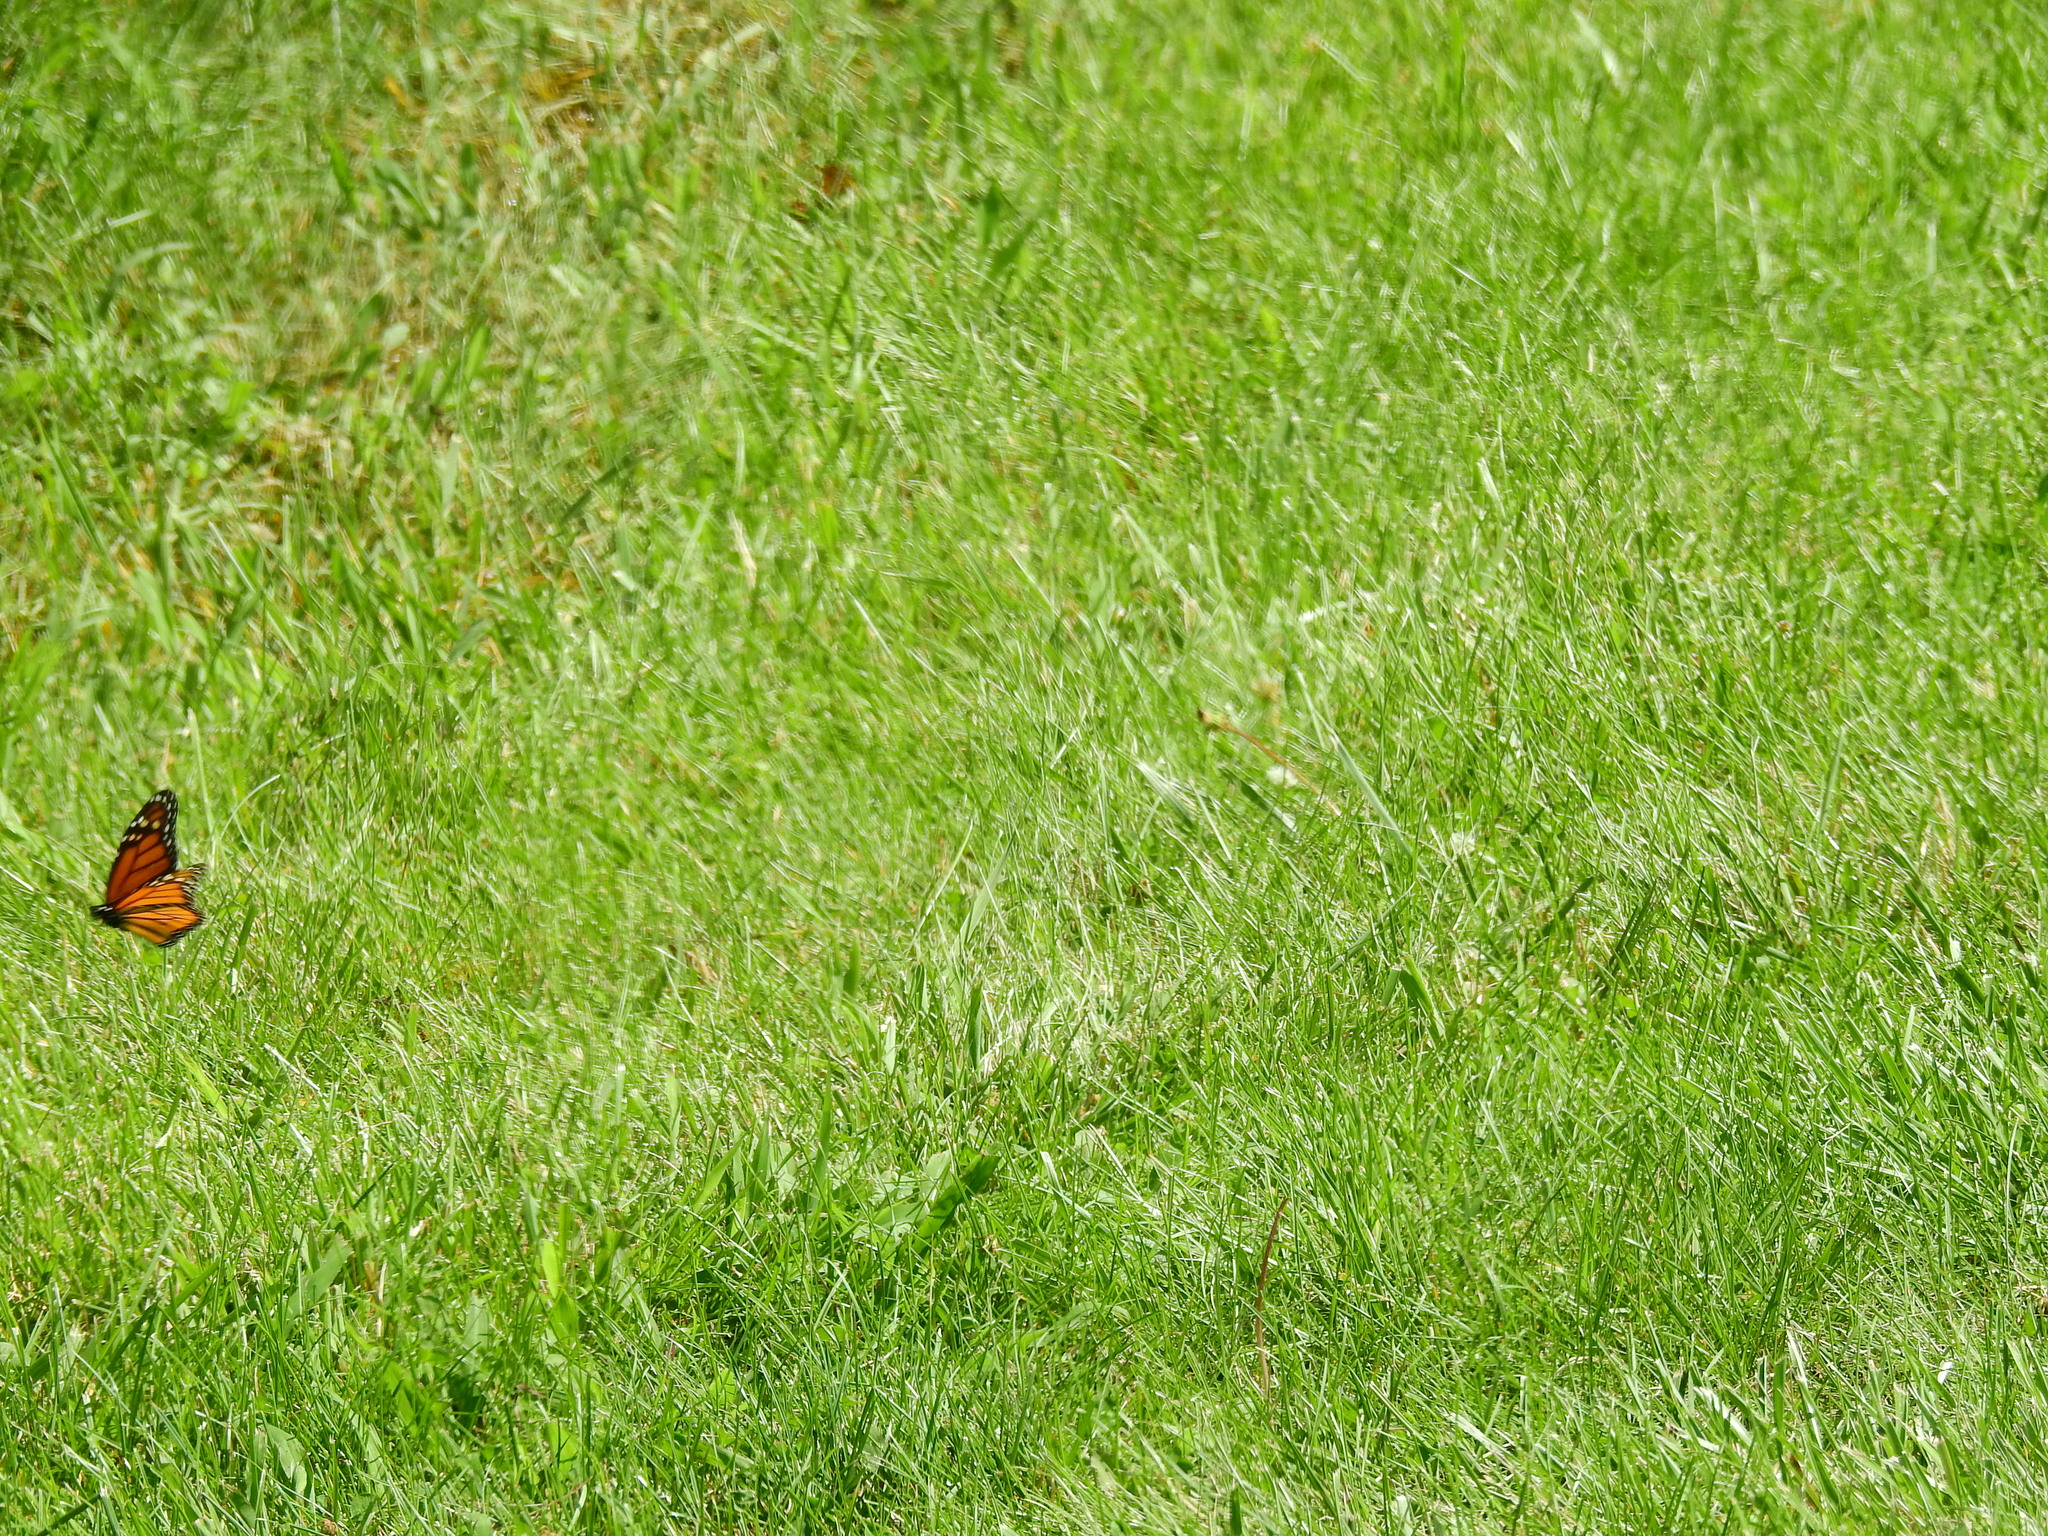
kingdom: Animalia
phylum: Arthropoda
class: Insecta
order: Lepidoptera
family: Nymphalidae
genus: Danaus
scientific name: Danaus plexippus
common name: Monarch
